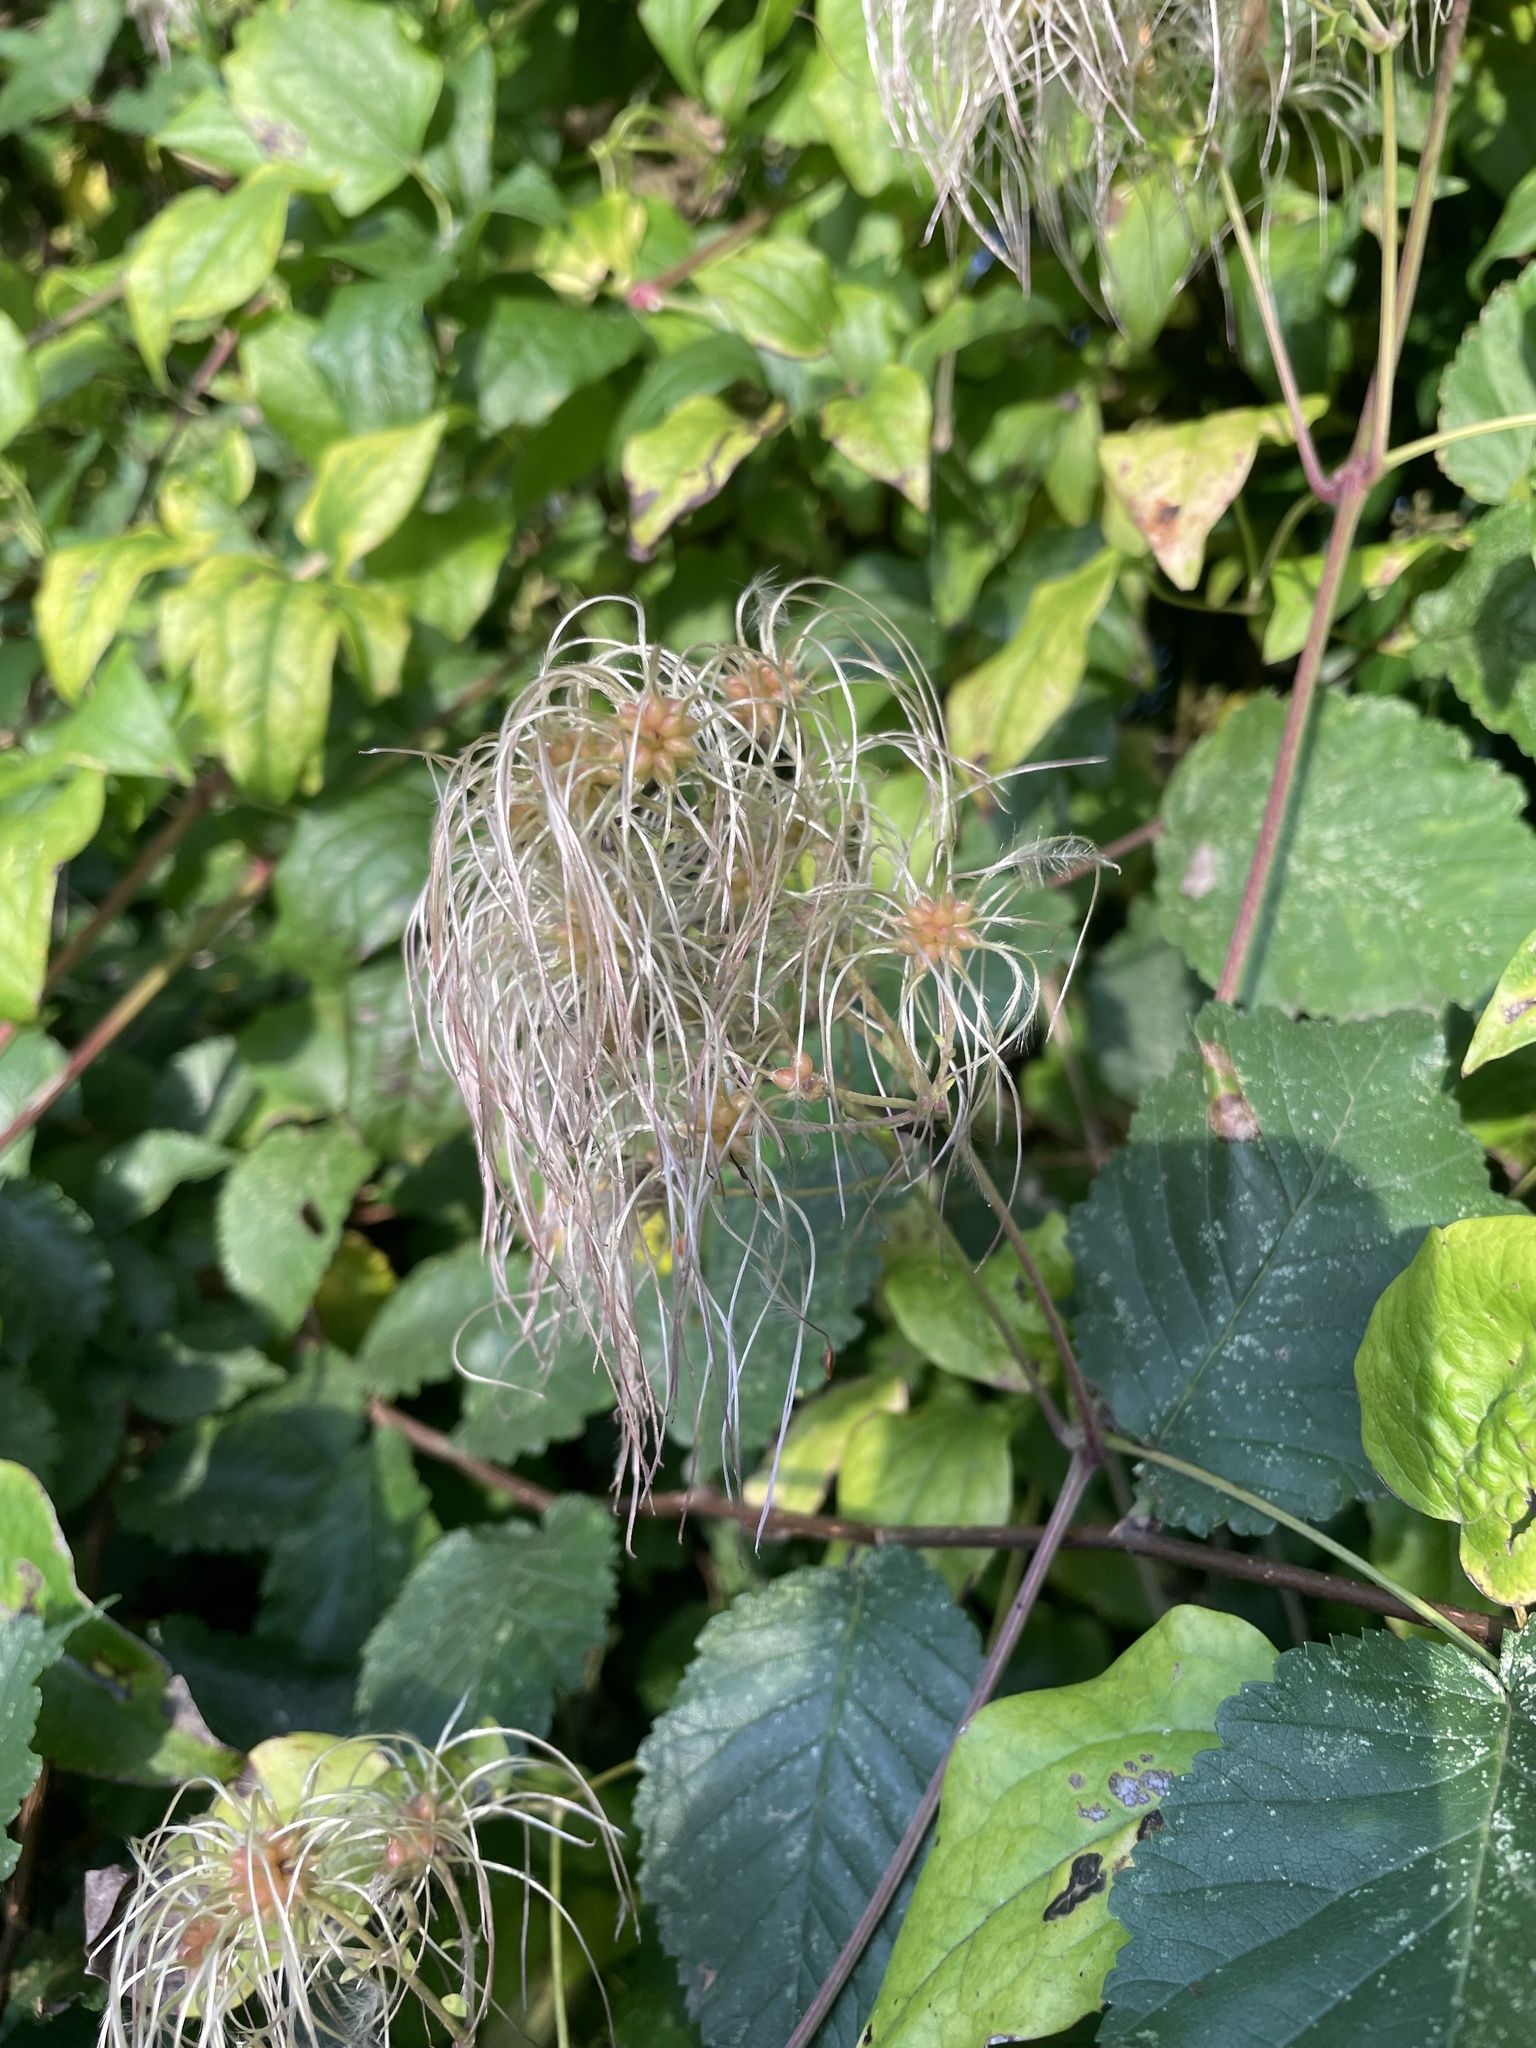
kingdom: Plantae
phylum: Tracheophyta
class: Magnoliopsida
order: Ranunculales
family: Ranunculaceae
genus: Clematis
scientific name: Clematis vitalba
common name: Evergreen clematis
